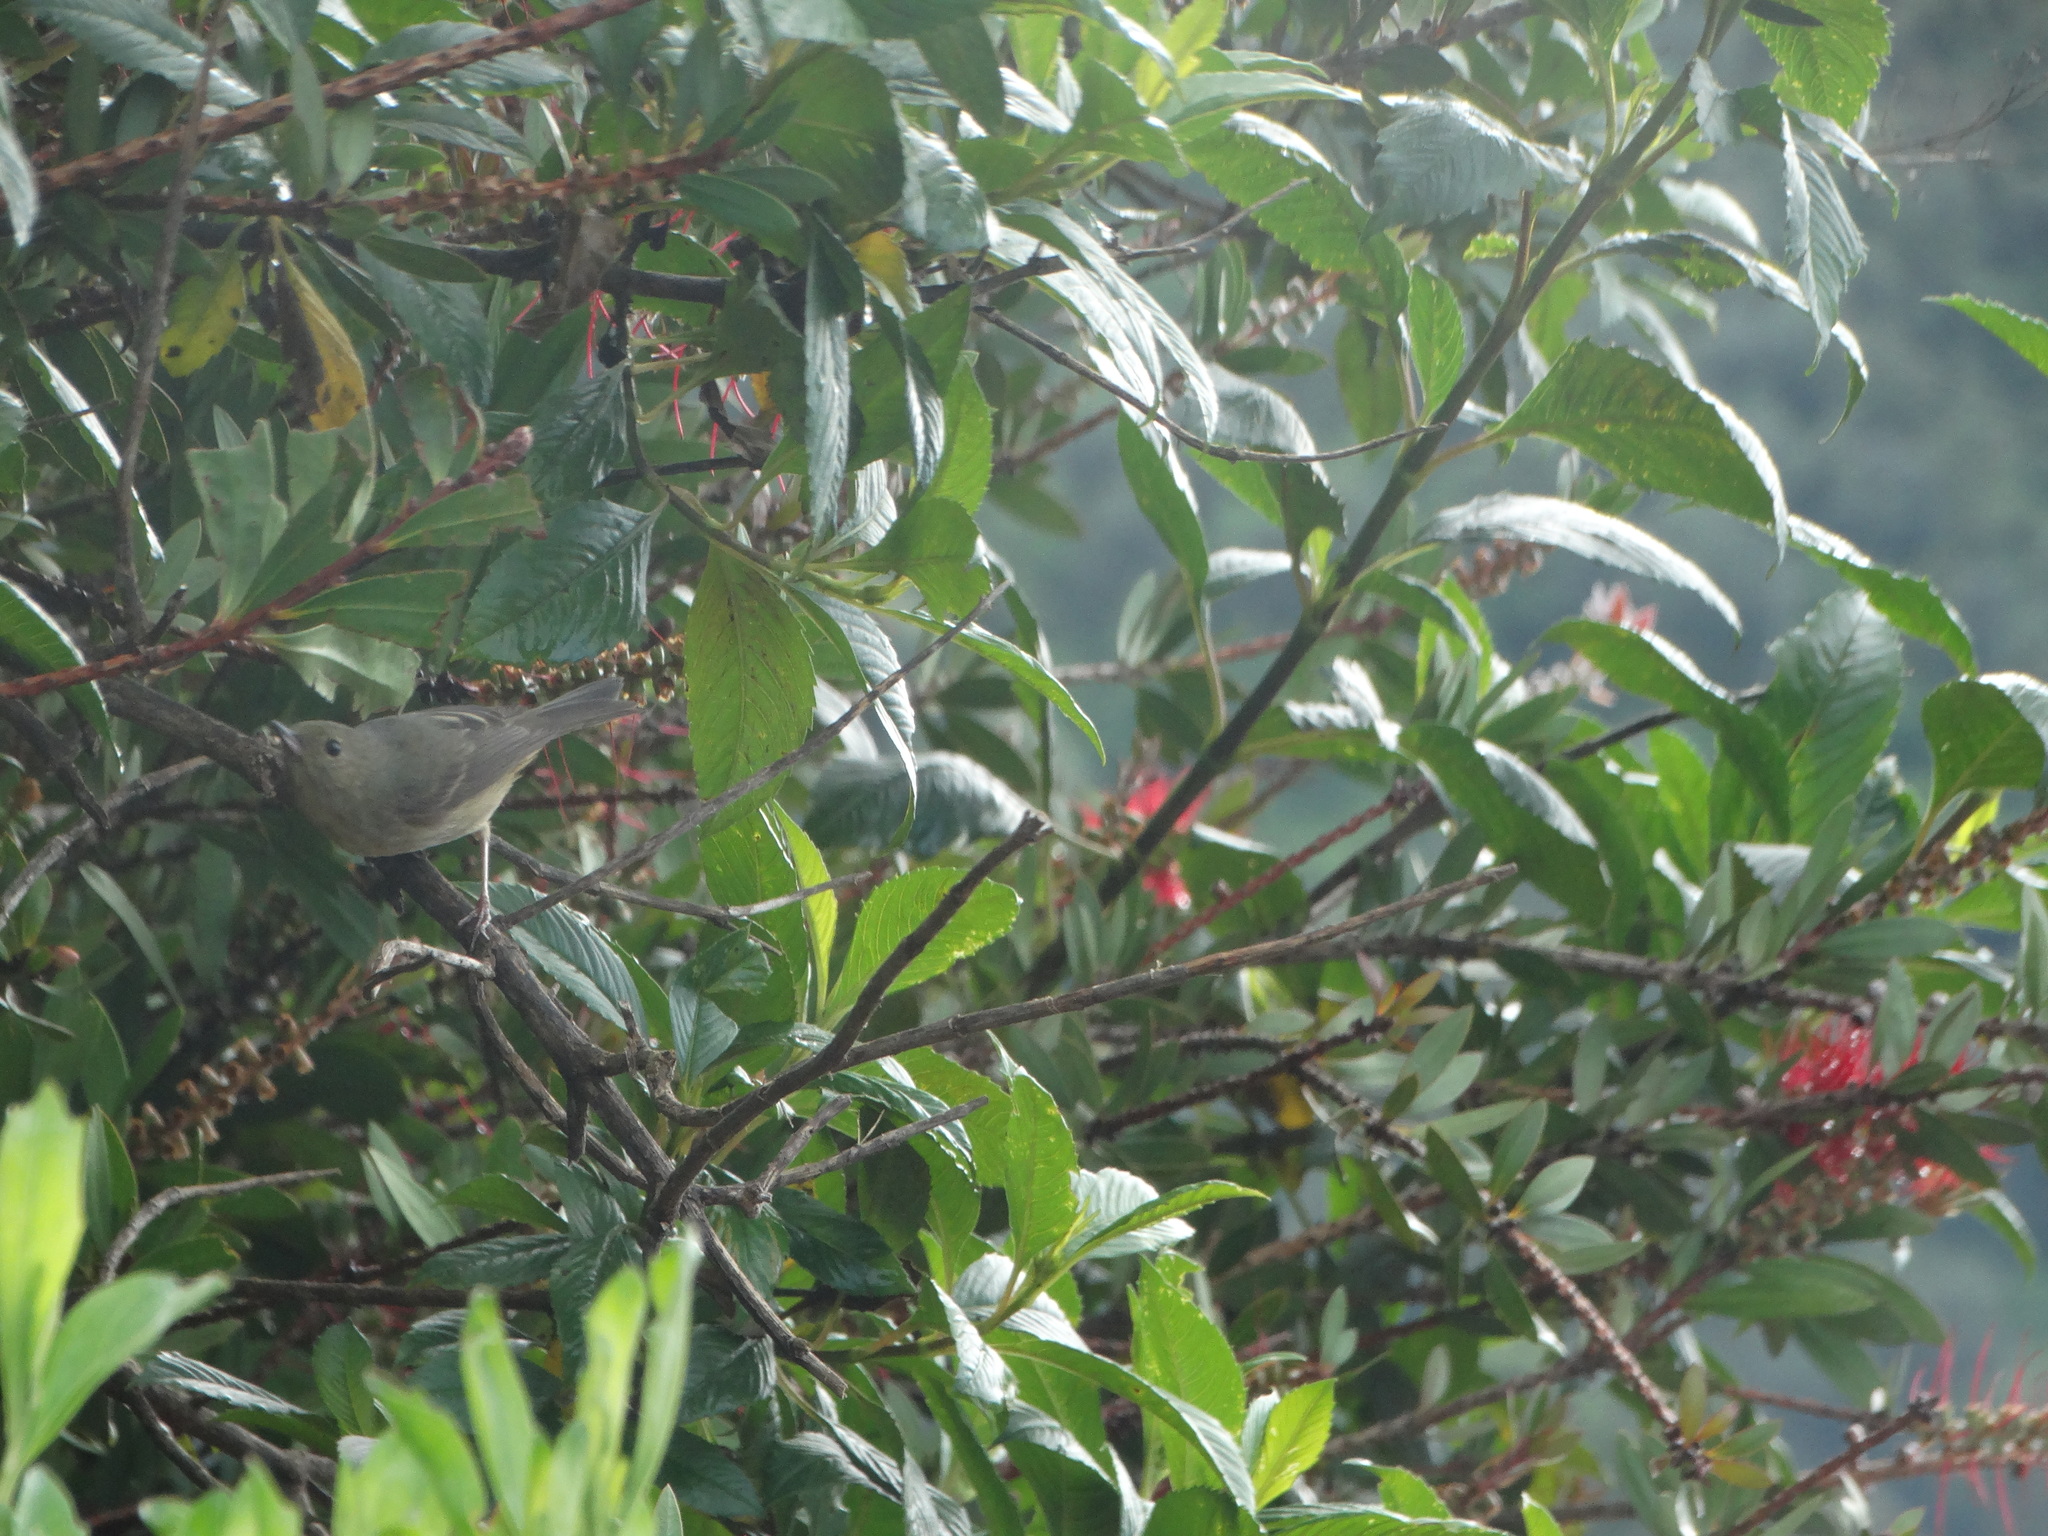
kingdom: Animalia
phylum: Chordata
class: Aves
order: Passeriformes
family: Thraupidae
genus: Diglossa
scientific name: Diglossa baritula
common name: Cinnamon-bellied flowerpiercer
